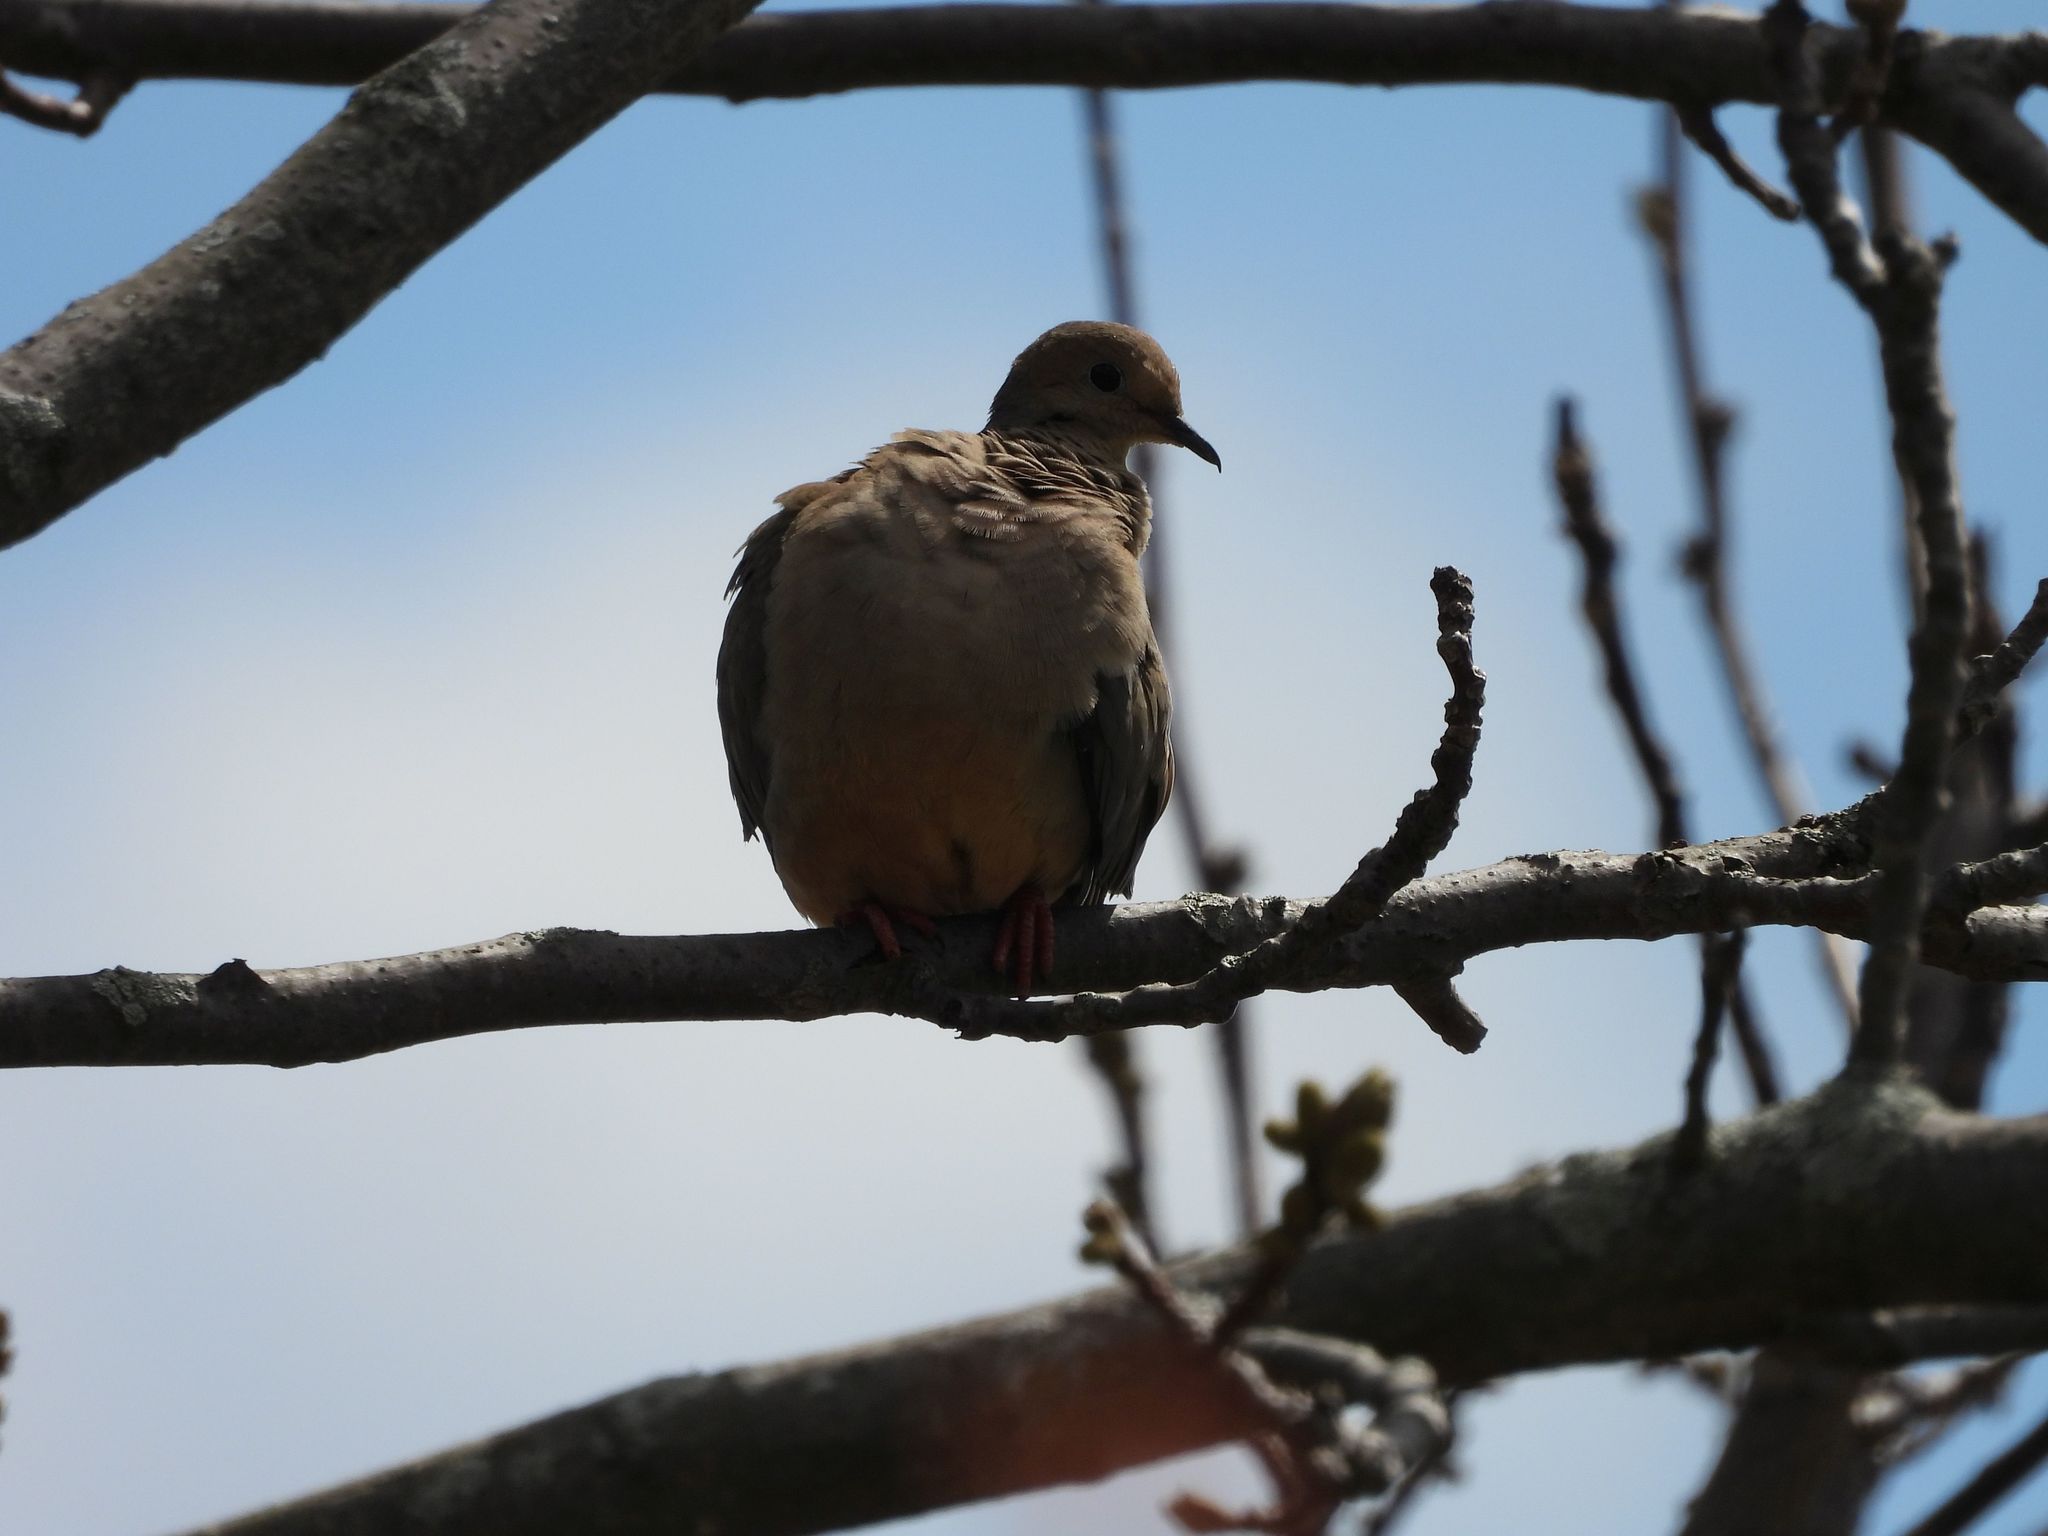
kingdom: Animalia
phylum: Chordata
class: Aves
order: Columbiformes
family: Columbidae
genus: Zenaida
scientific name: Zenaida macroura
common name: Mourning dove
